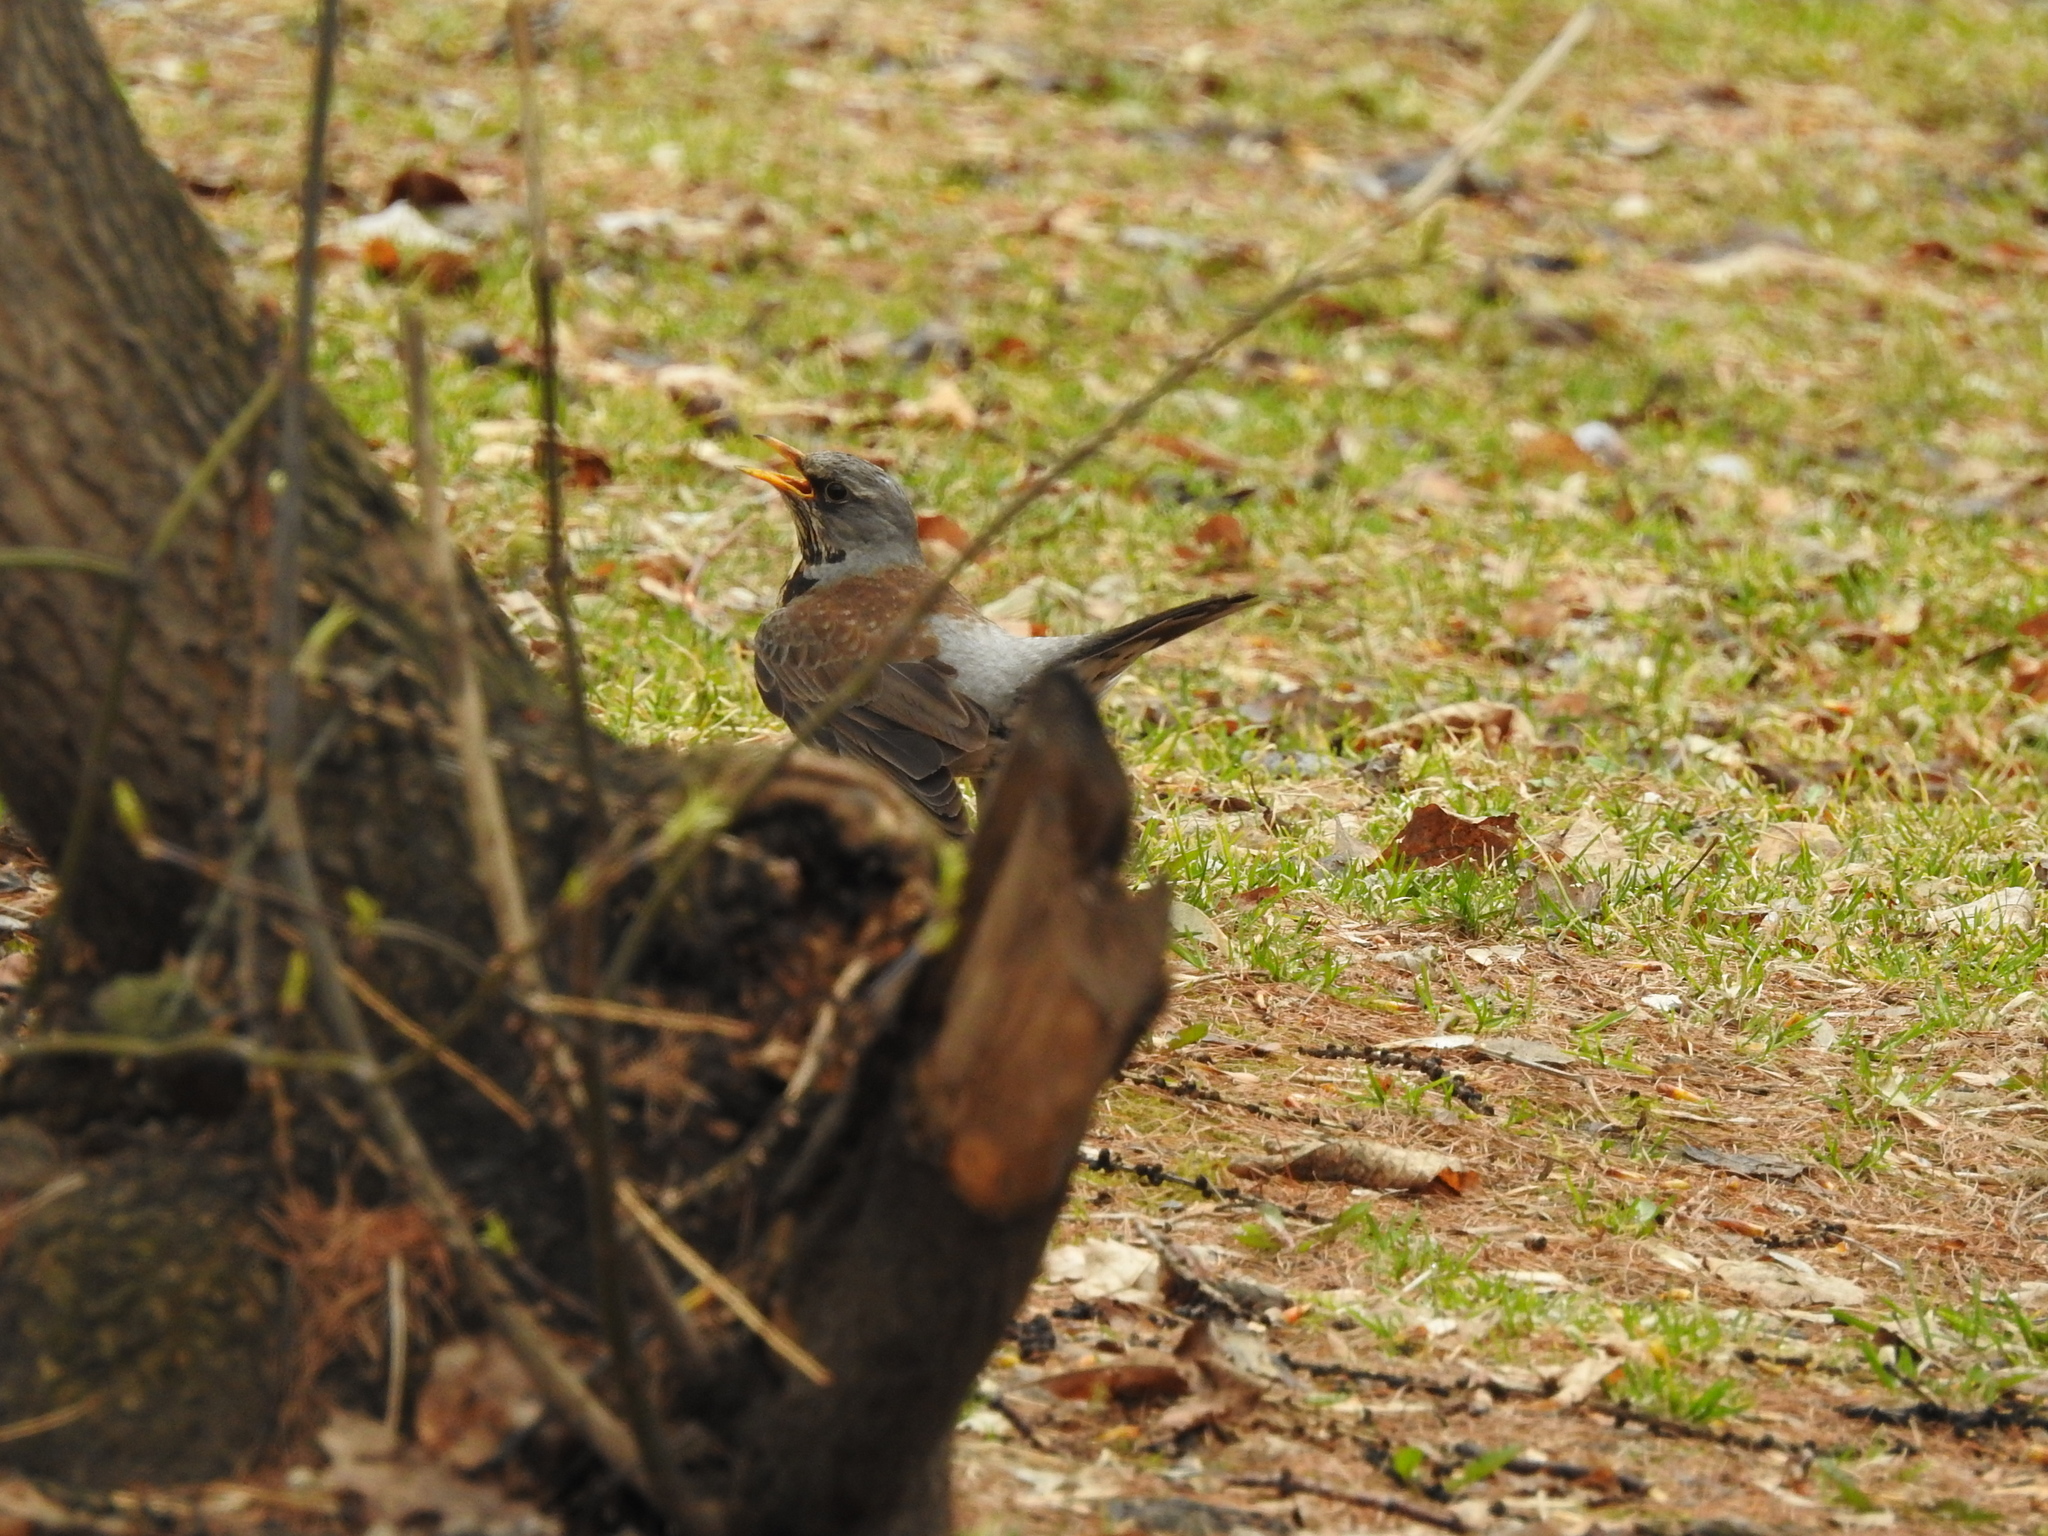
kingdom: Animalia
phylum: Chordata
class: Aves
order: Passeriformes
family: Turdidae
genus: Turdus
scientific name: Turdus pilaris
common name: Fieldfare
